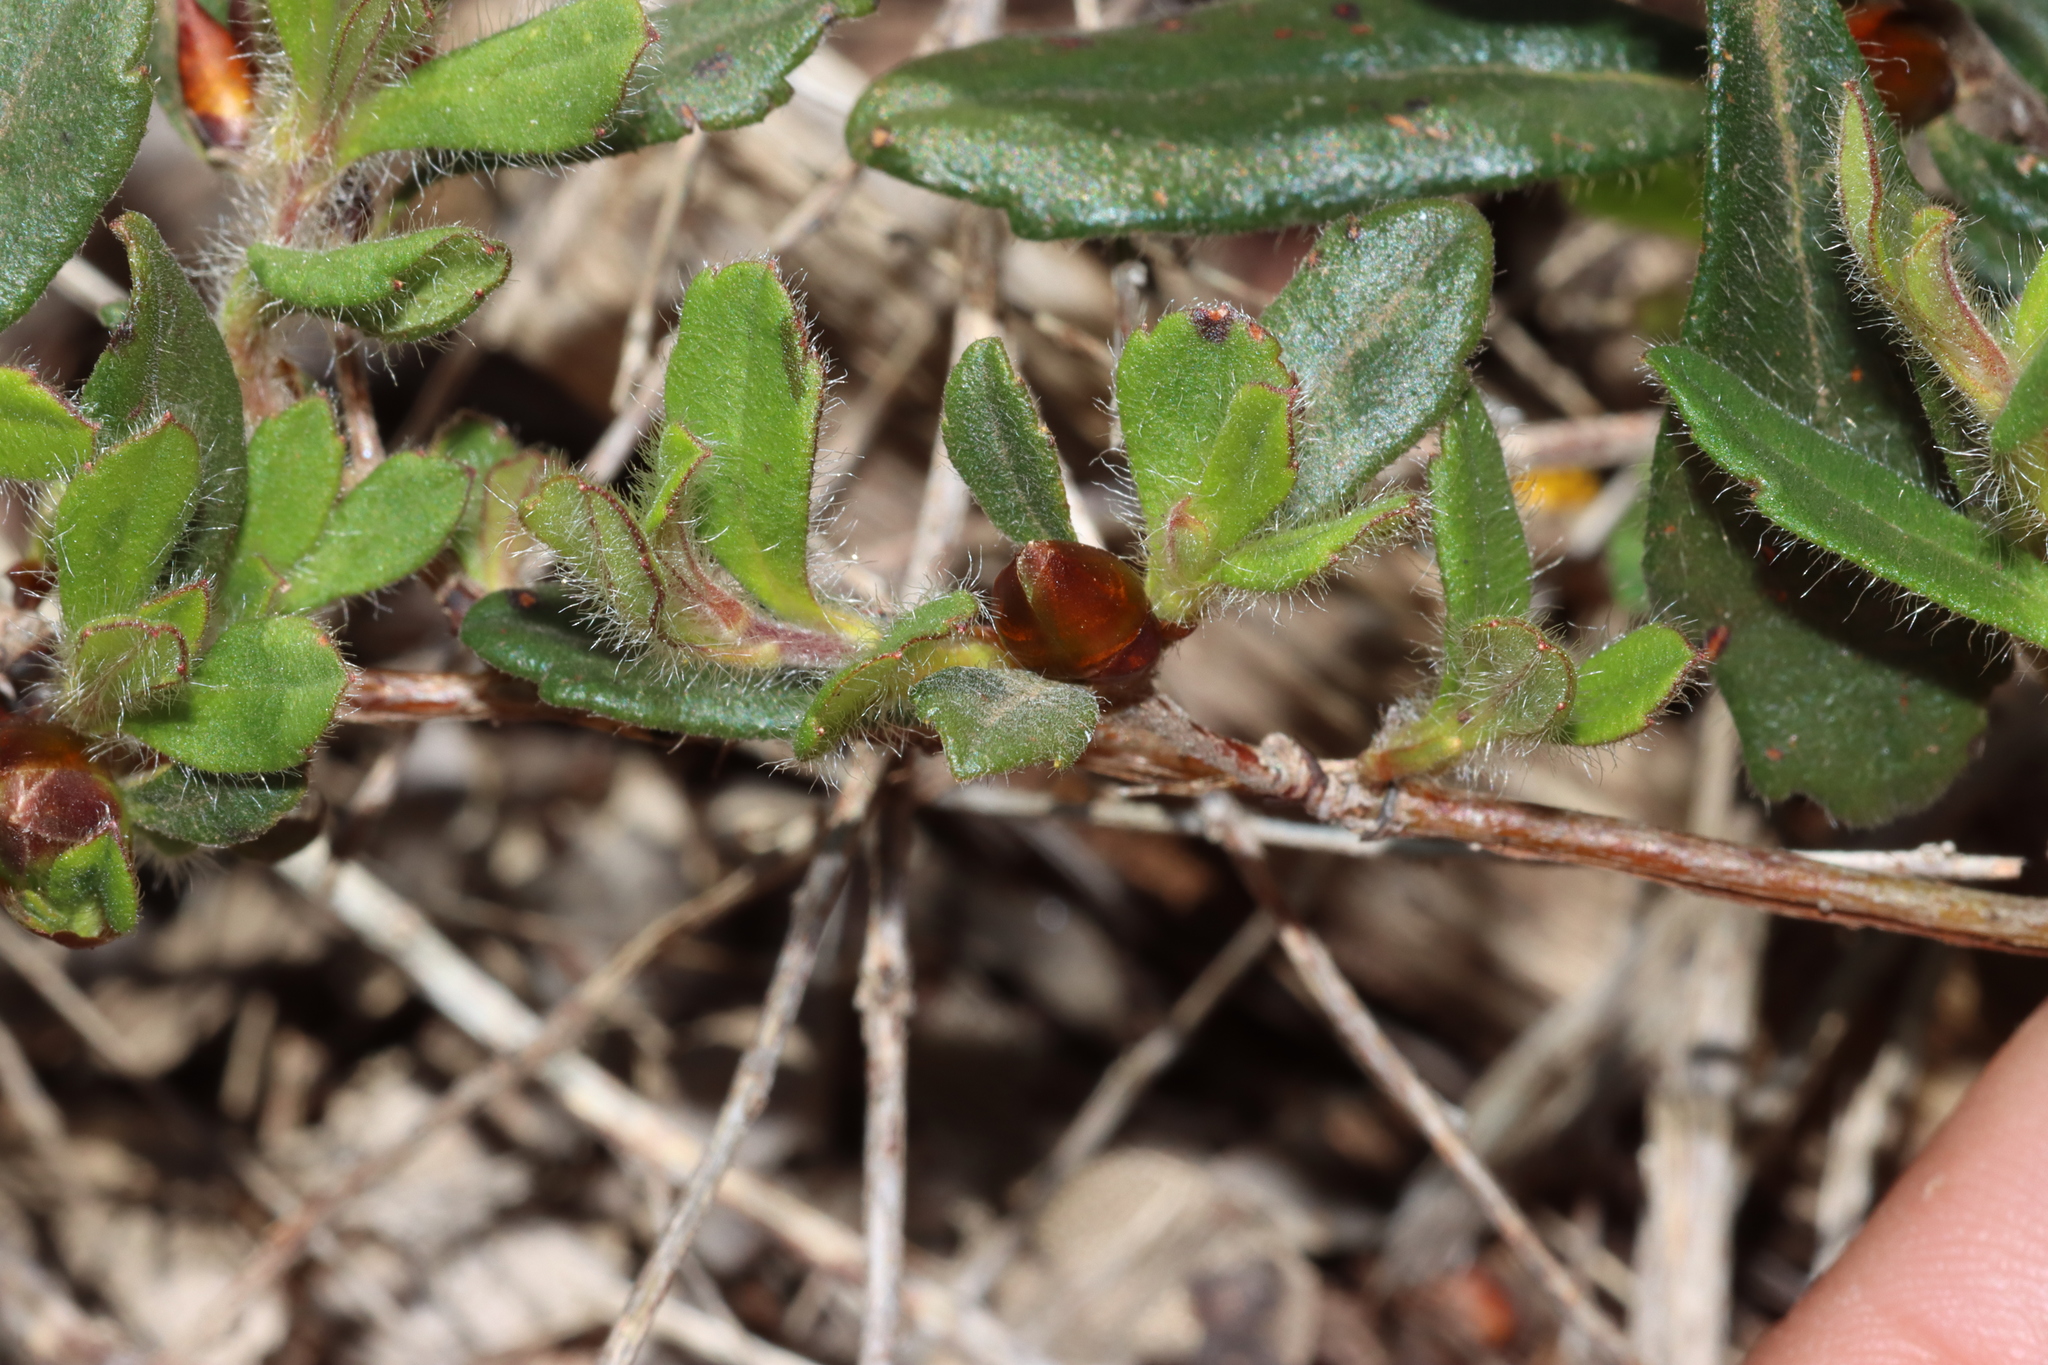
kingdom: Plantae
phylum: Tracheophyta
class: Magnoliopsida
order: Dilleniales
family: Dilleniaceae
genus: Hibbertia
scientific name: Hibbertia ovata
